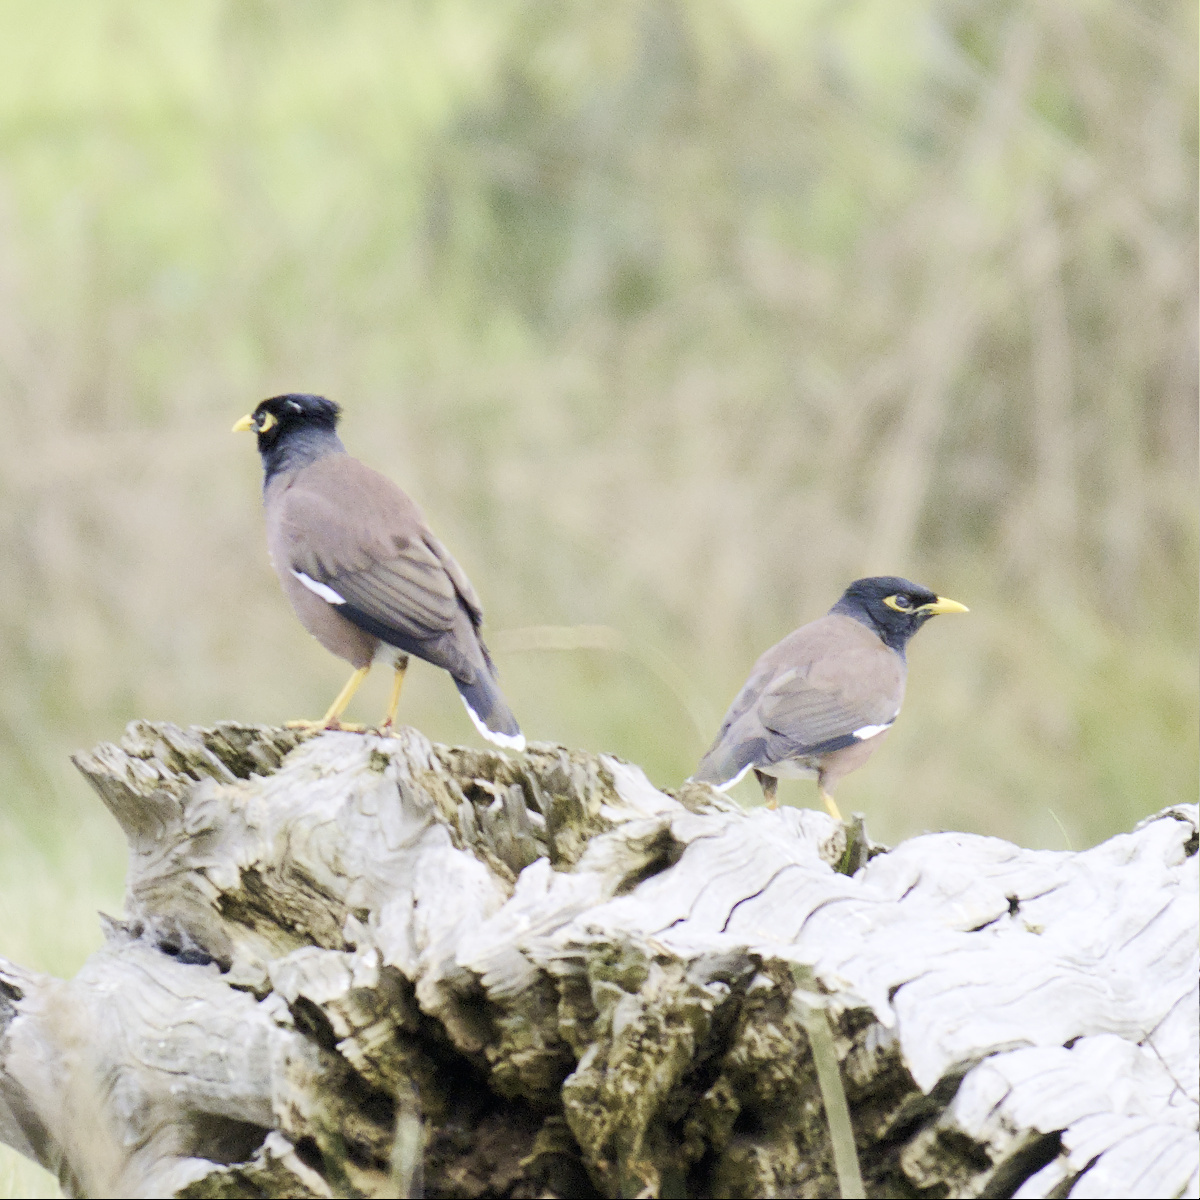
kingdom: Animalia
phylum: Chordata
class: Aves
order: Passeriformes
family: Sturnidae
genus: Acridotheres
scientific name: Acridotheres tristis
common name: Common myna
